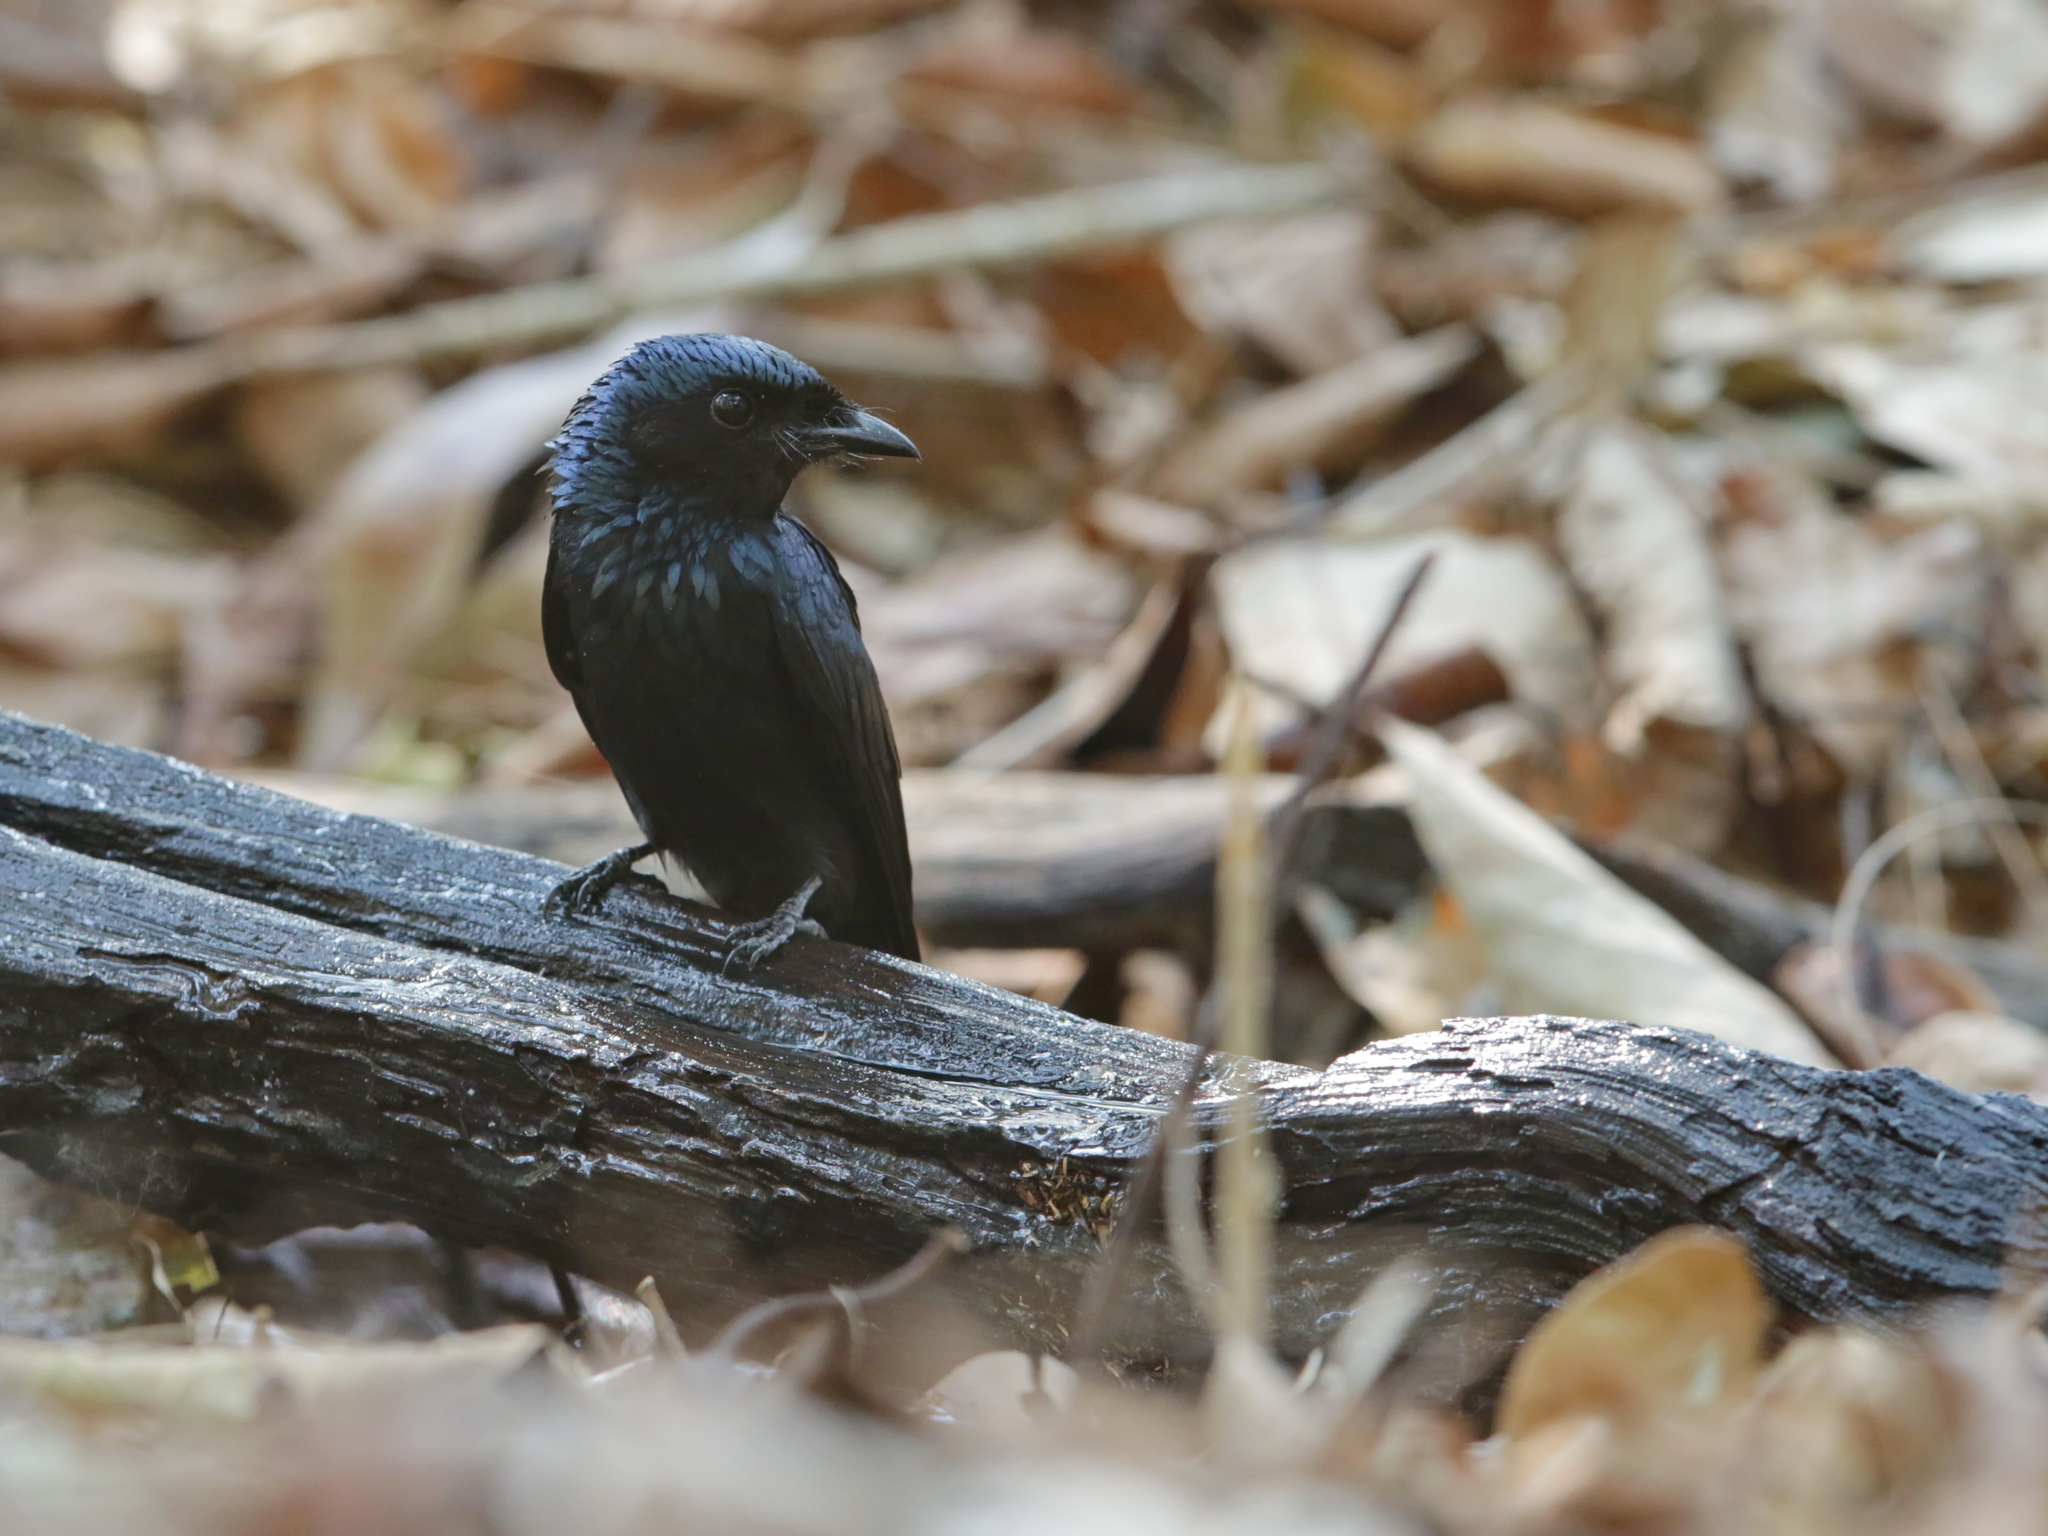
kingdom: Animalia
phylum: Chordata
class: Aves
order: Passeriformes
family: Dicruridae
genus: Dicrurus
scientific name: Dicrurus aeneus
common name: Bronzed drongo
